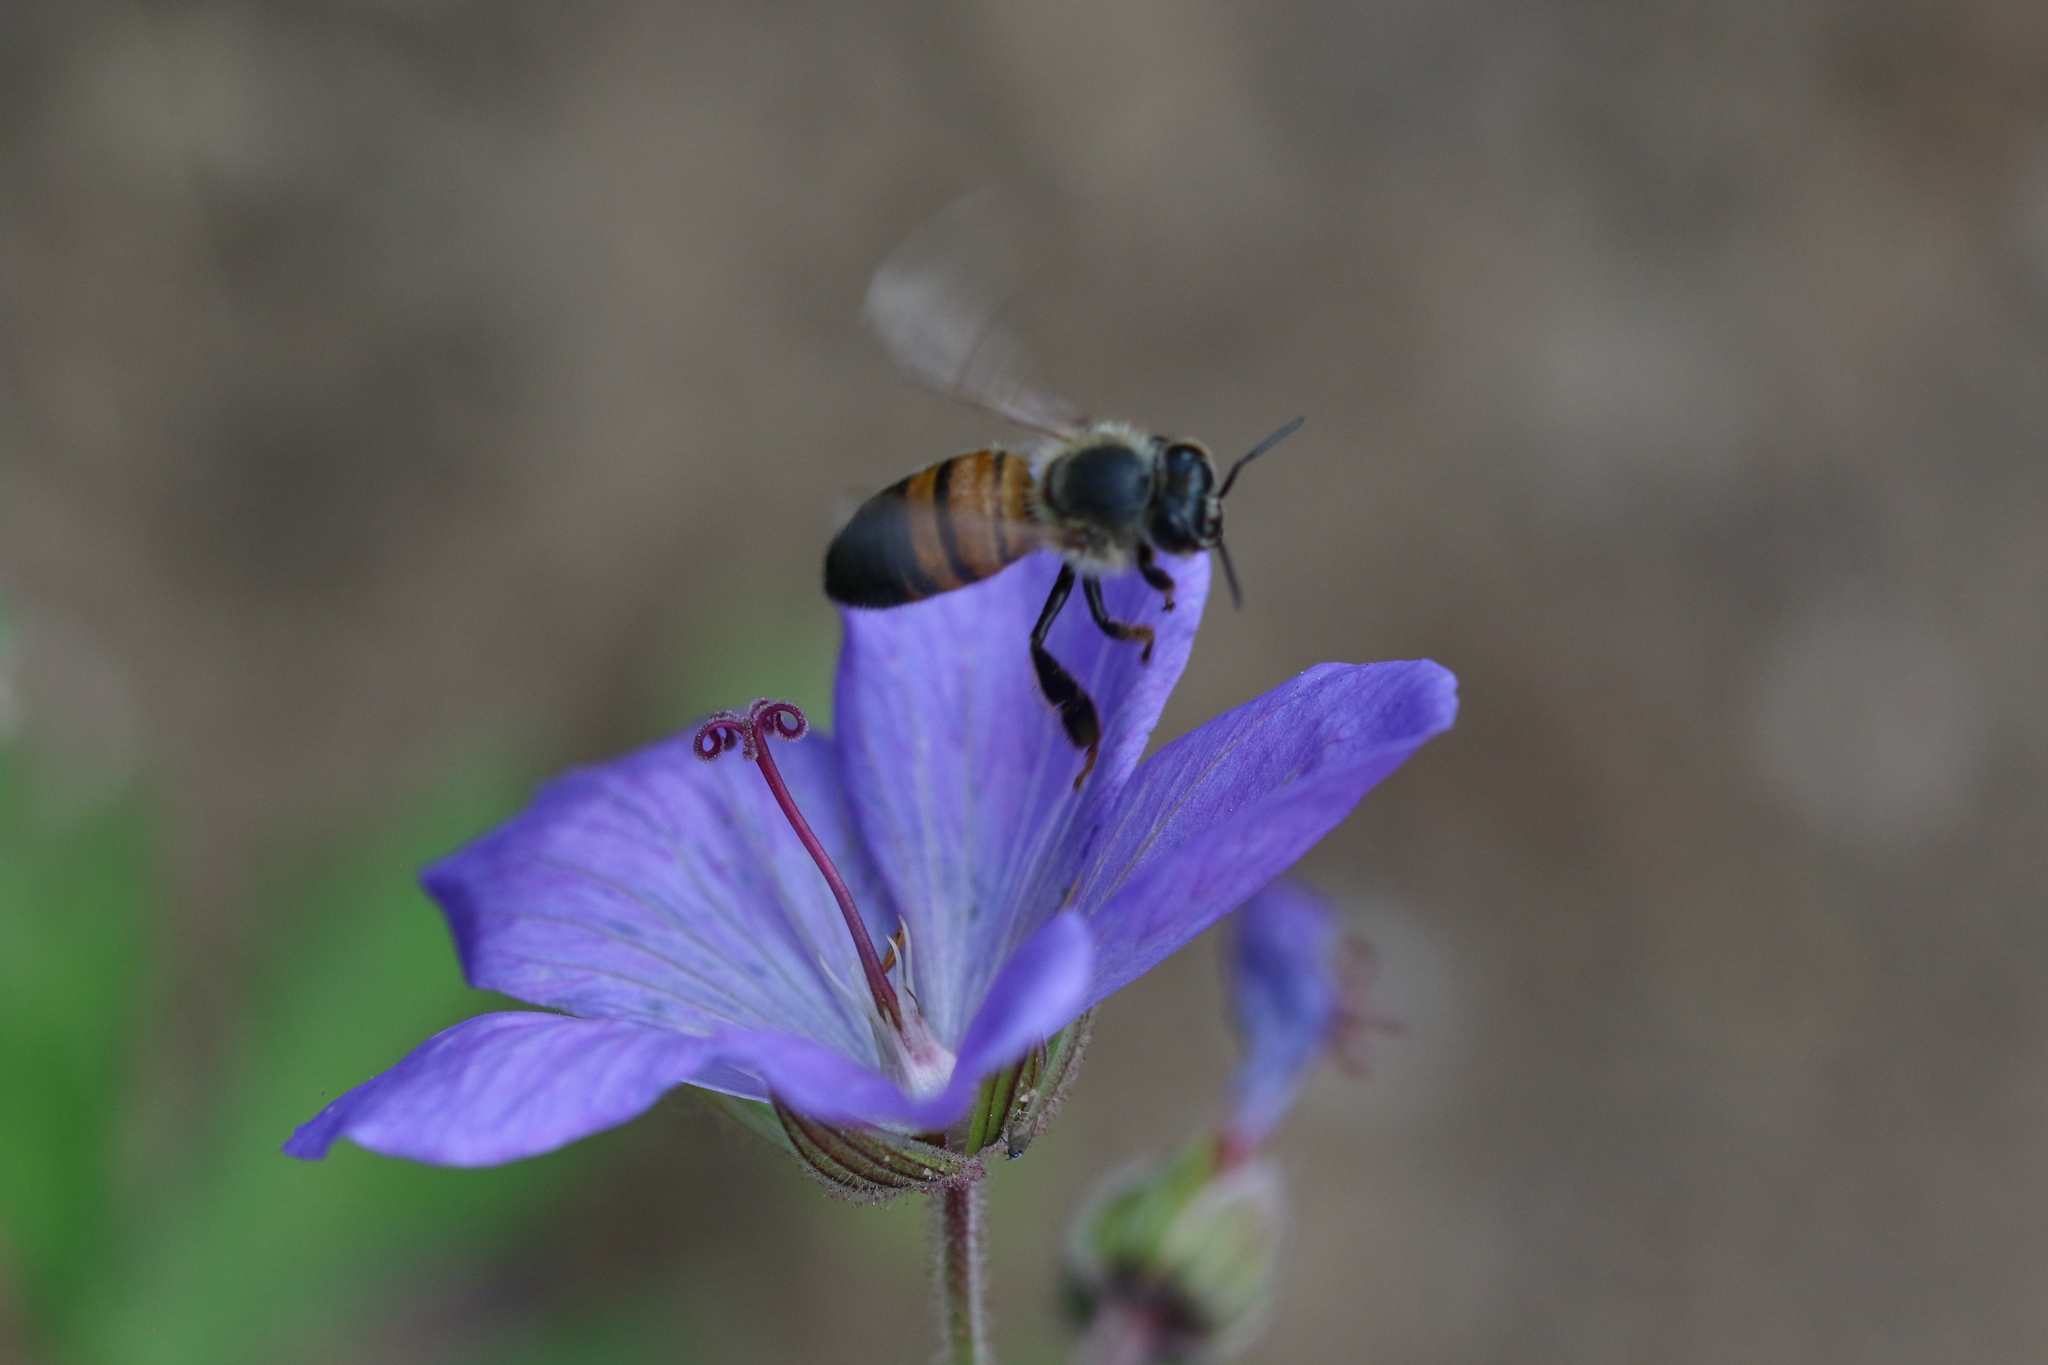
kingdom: Animalia
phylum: Arthropoda
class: Insecta
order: Hymenoptera
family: Apidae
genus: Apis
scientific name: Apis mellifera
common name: Honey bee
